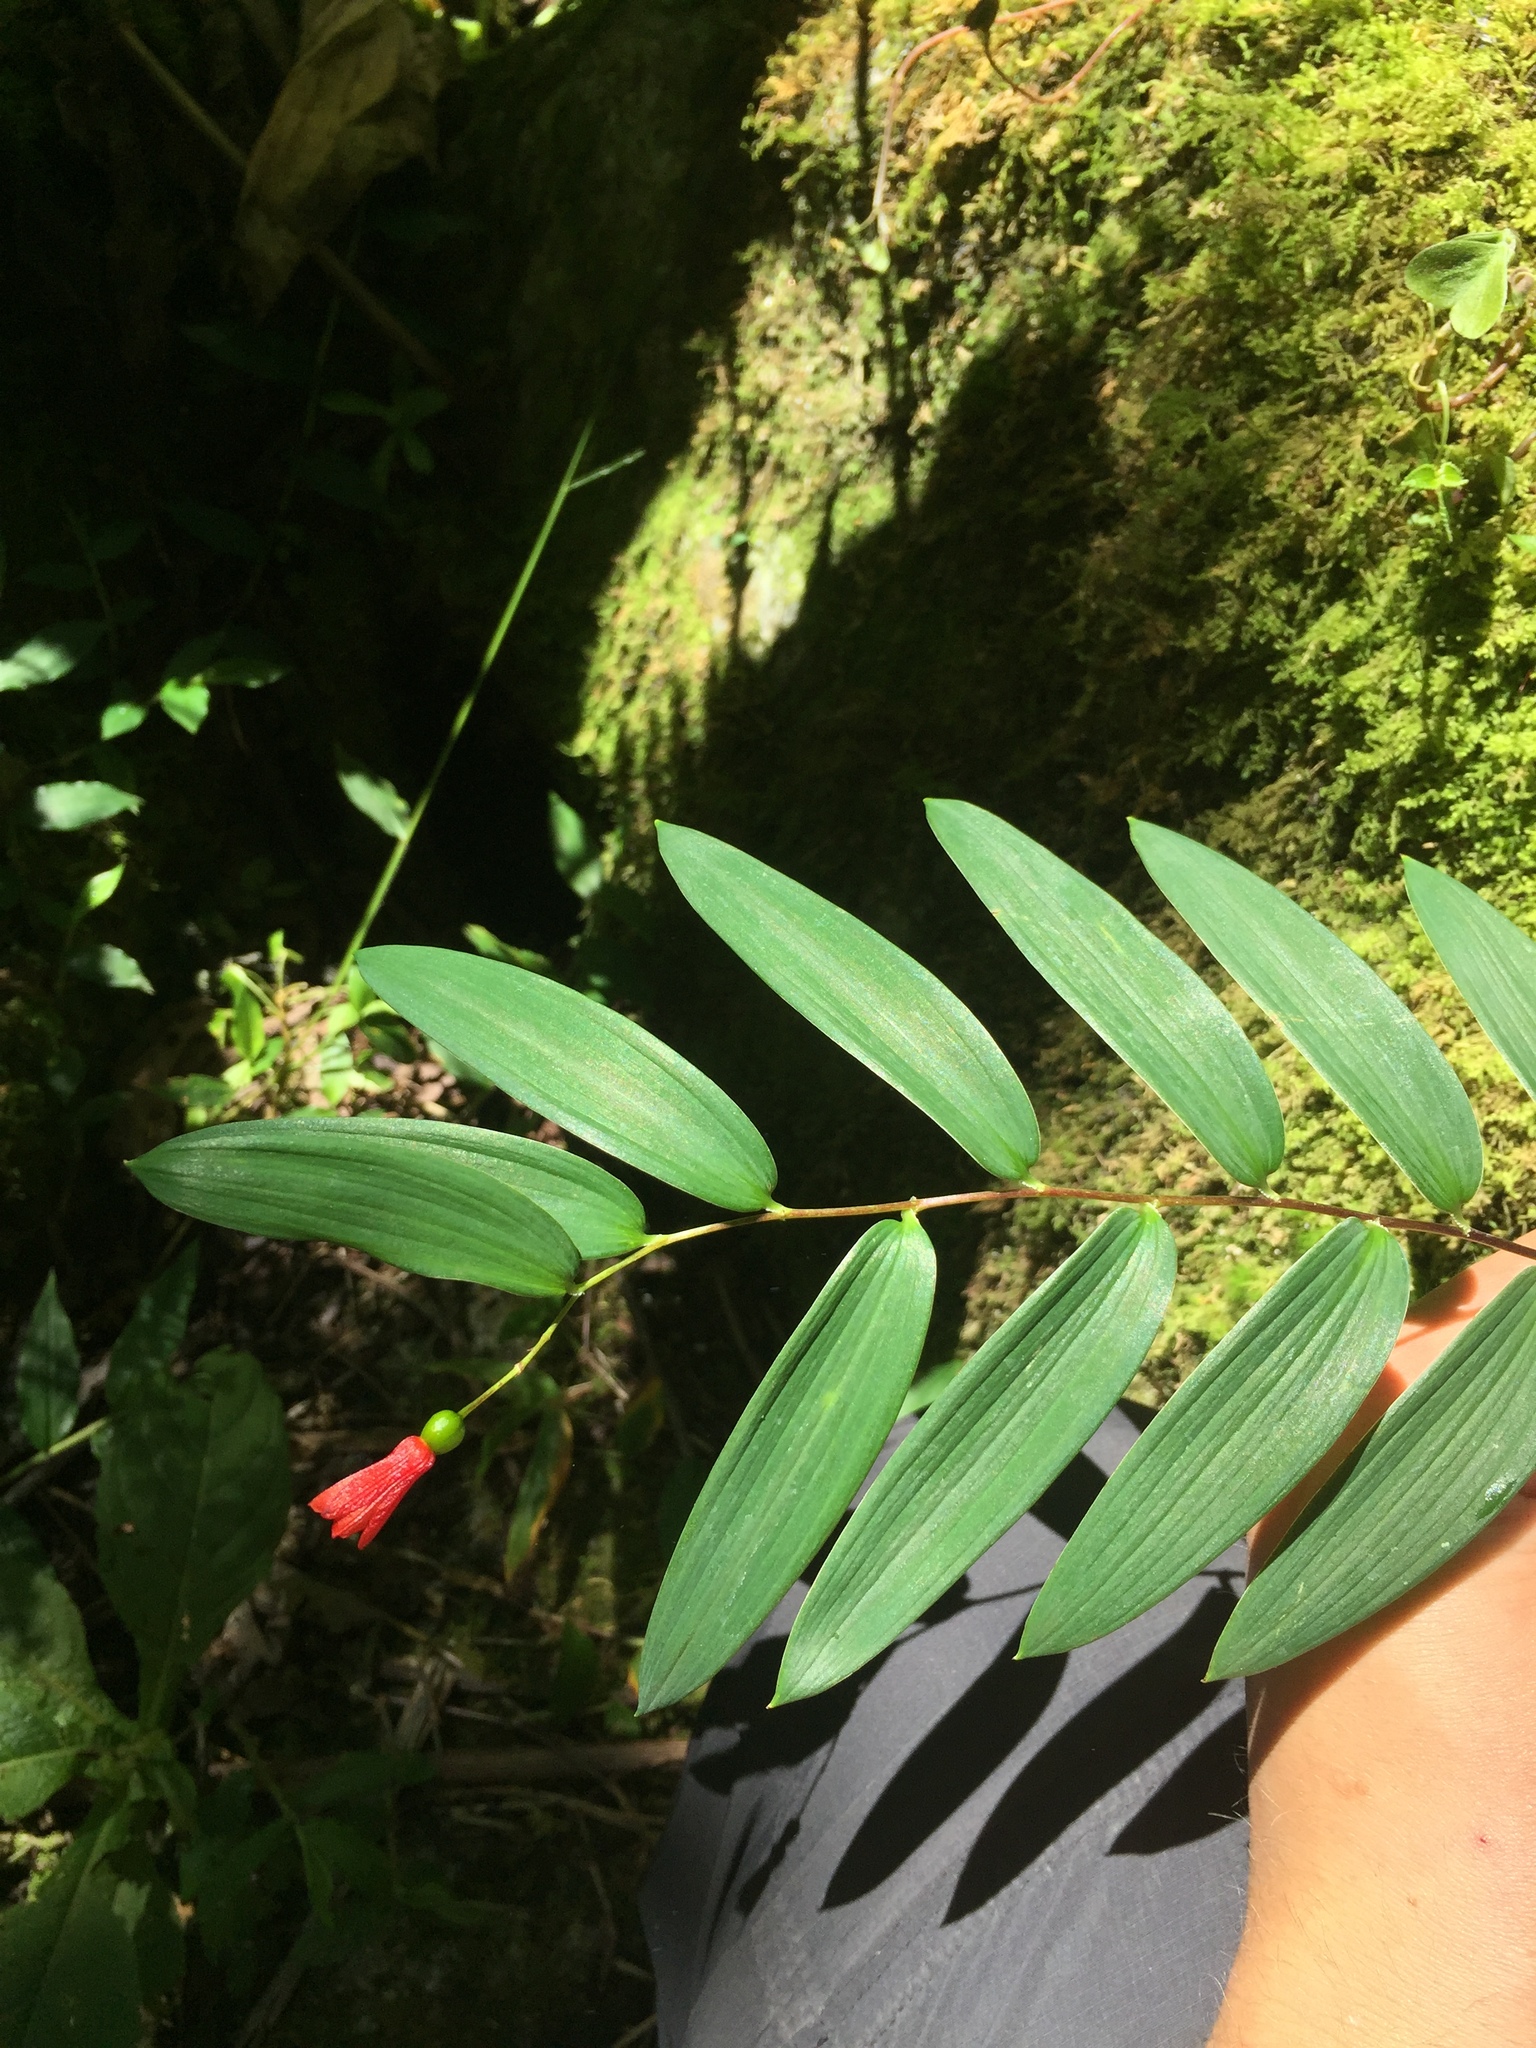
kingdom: Plantae
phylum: Tracheophyta
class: Liliopsida
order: Liliales
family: Alstroemeriaceae
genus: Bomarea
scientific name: Bomarea distichifolia
